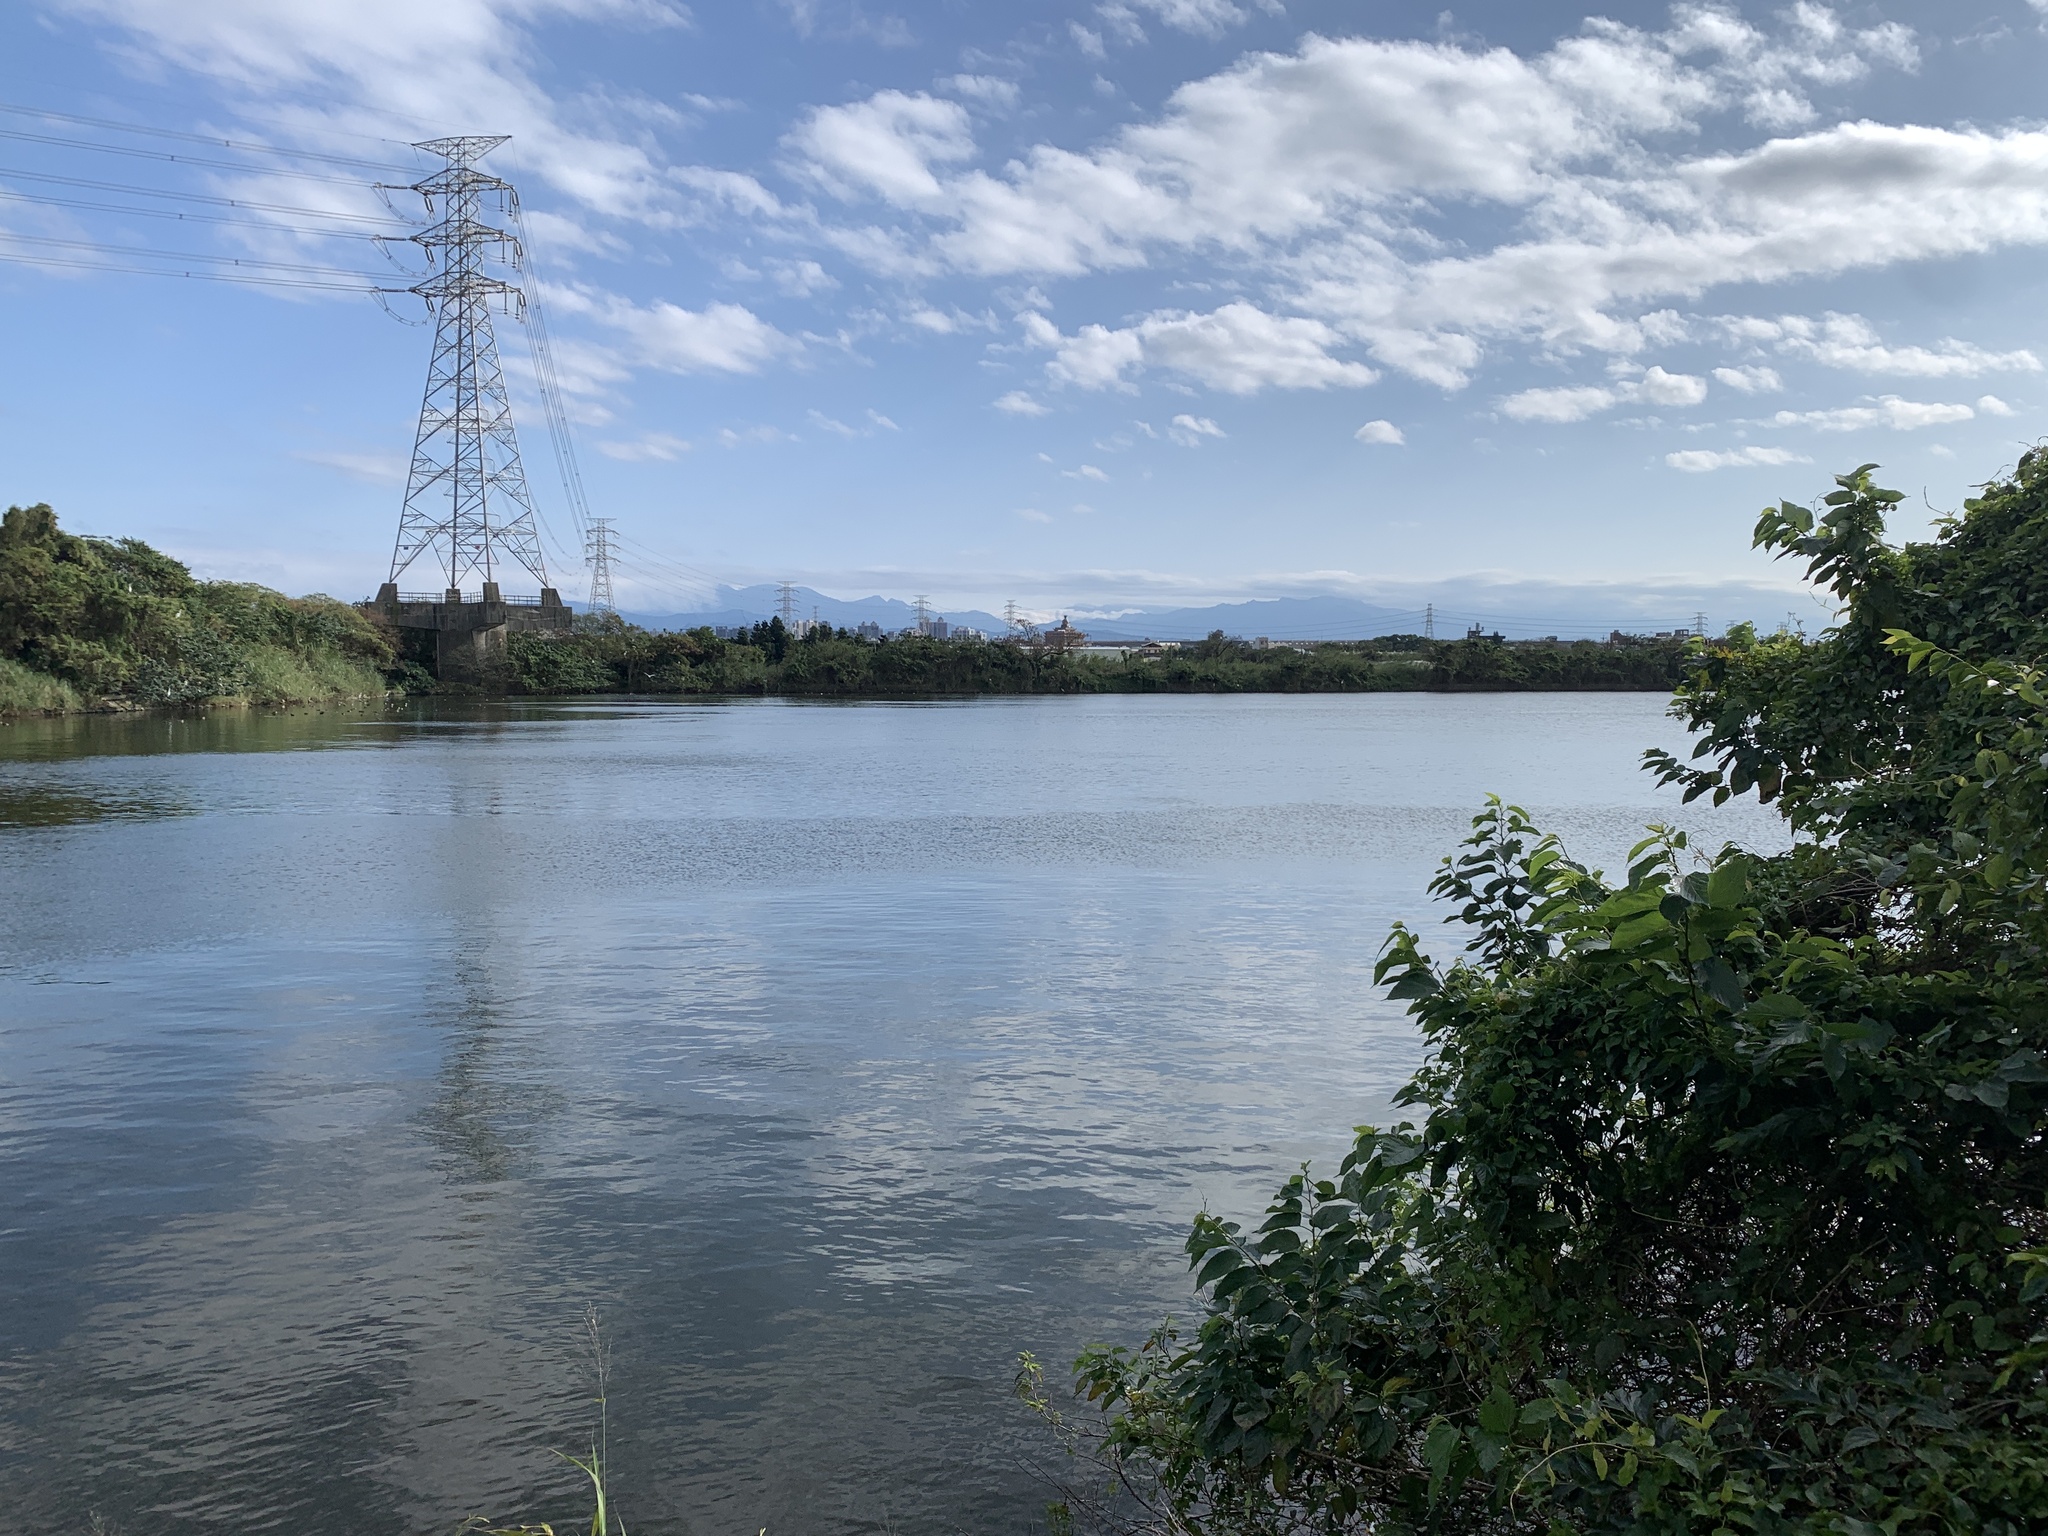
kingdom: Animalia
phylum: Chordata
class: Aves
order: Anseriformes
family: Anatidae
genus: Aythya
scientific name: Aythya ferina
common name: Common pochard
